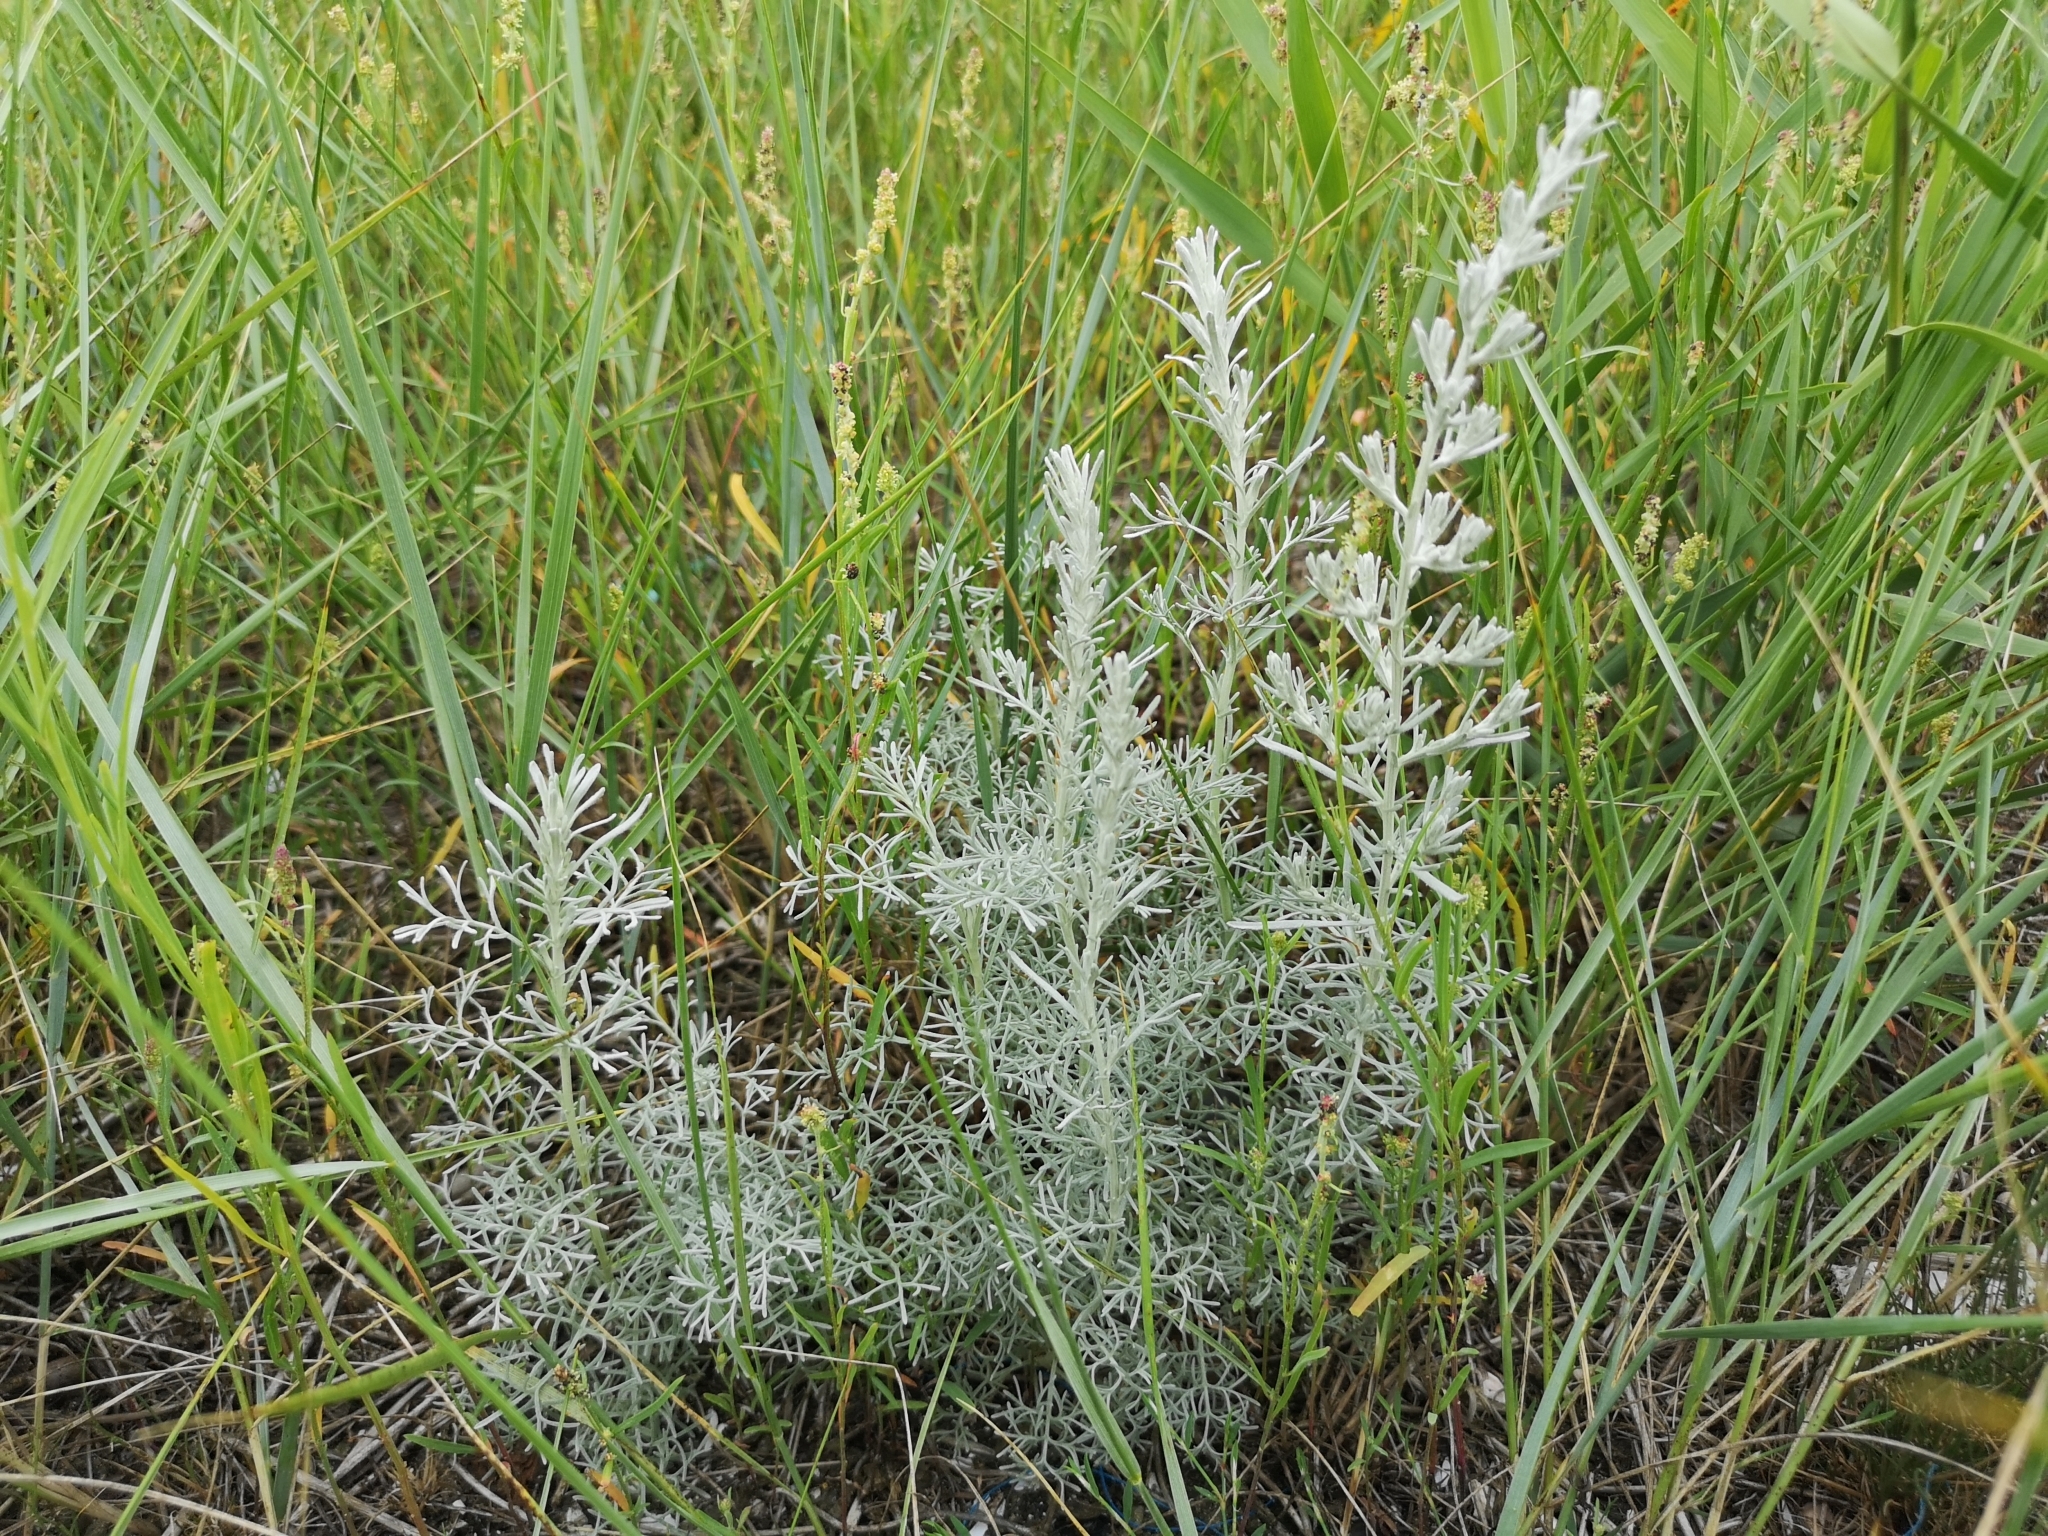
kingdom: Plantae
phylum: Tracheophyta
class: Magnoliopsida
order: Asterales
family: Asteraceae
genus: Artemisia
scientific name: Artemisia maritima
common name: Wormseed
